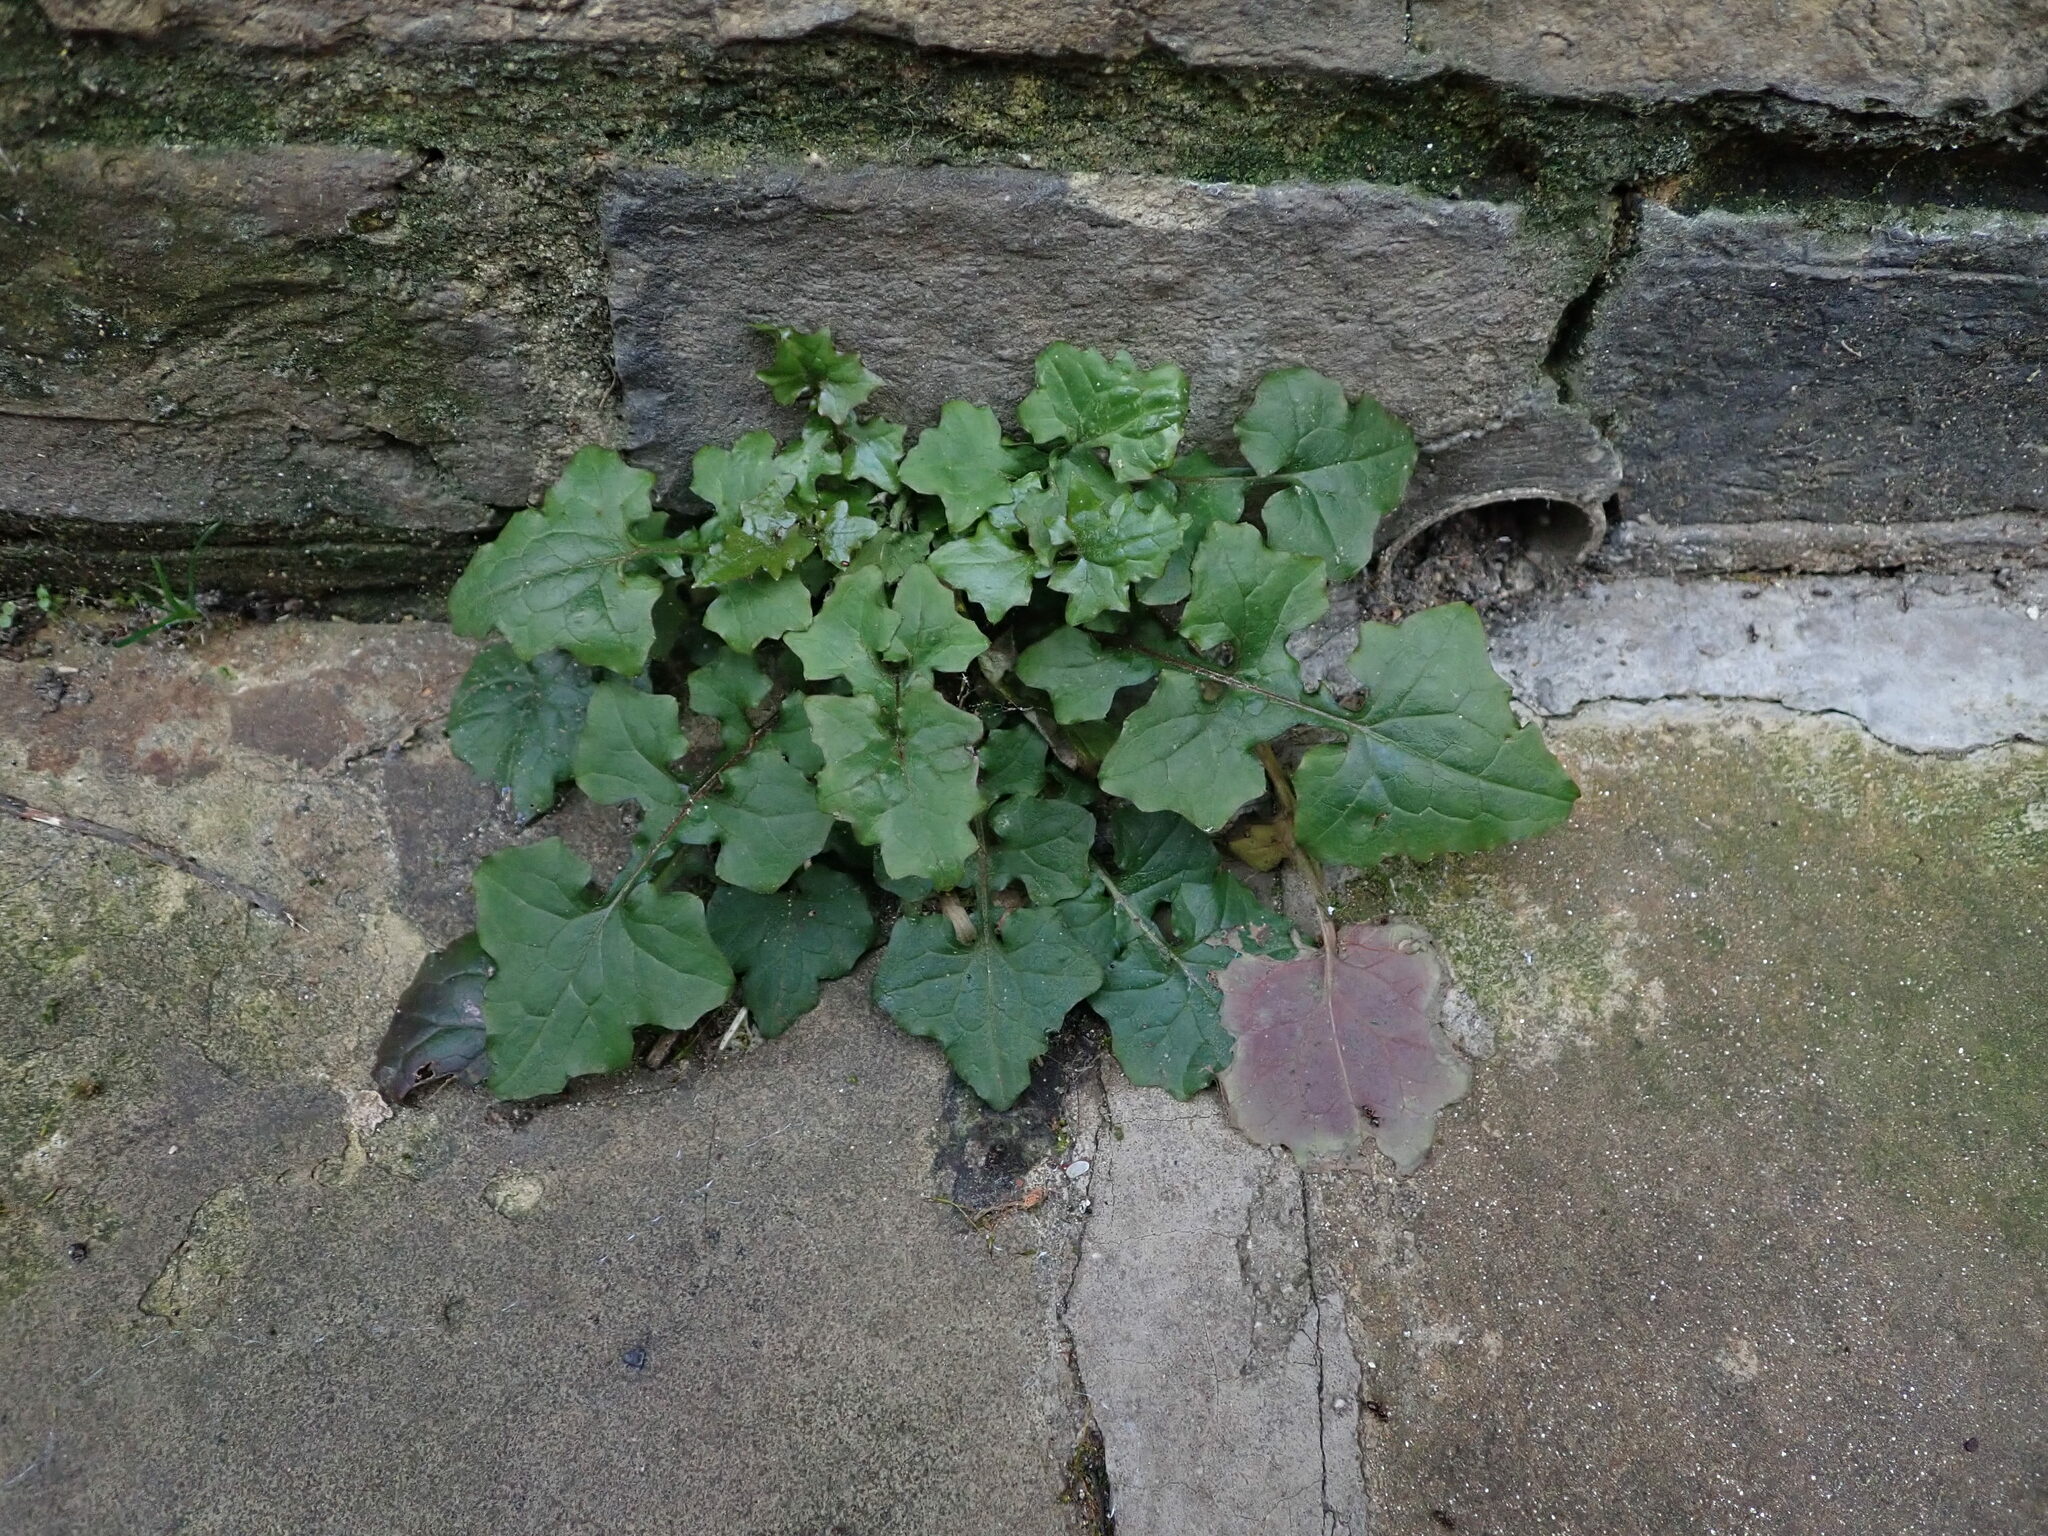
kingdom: Plantae
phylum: Tracheophyta
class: Magnoliopsida
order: Asterales
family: Asteraceae
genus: Mycelis
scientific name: Mycelis muralis
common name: Wall lettuce
